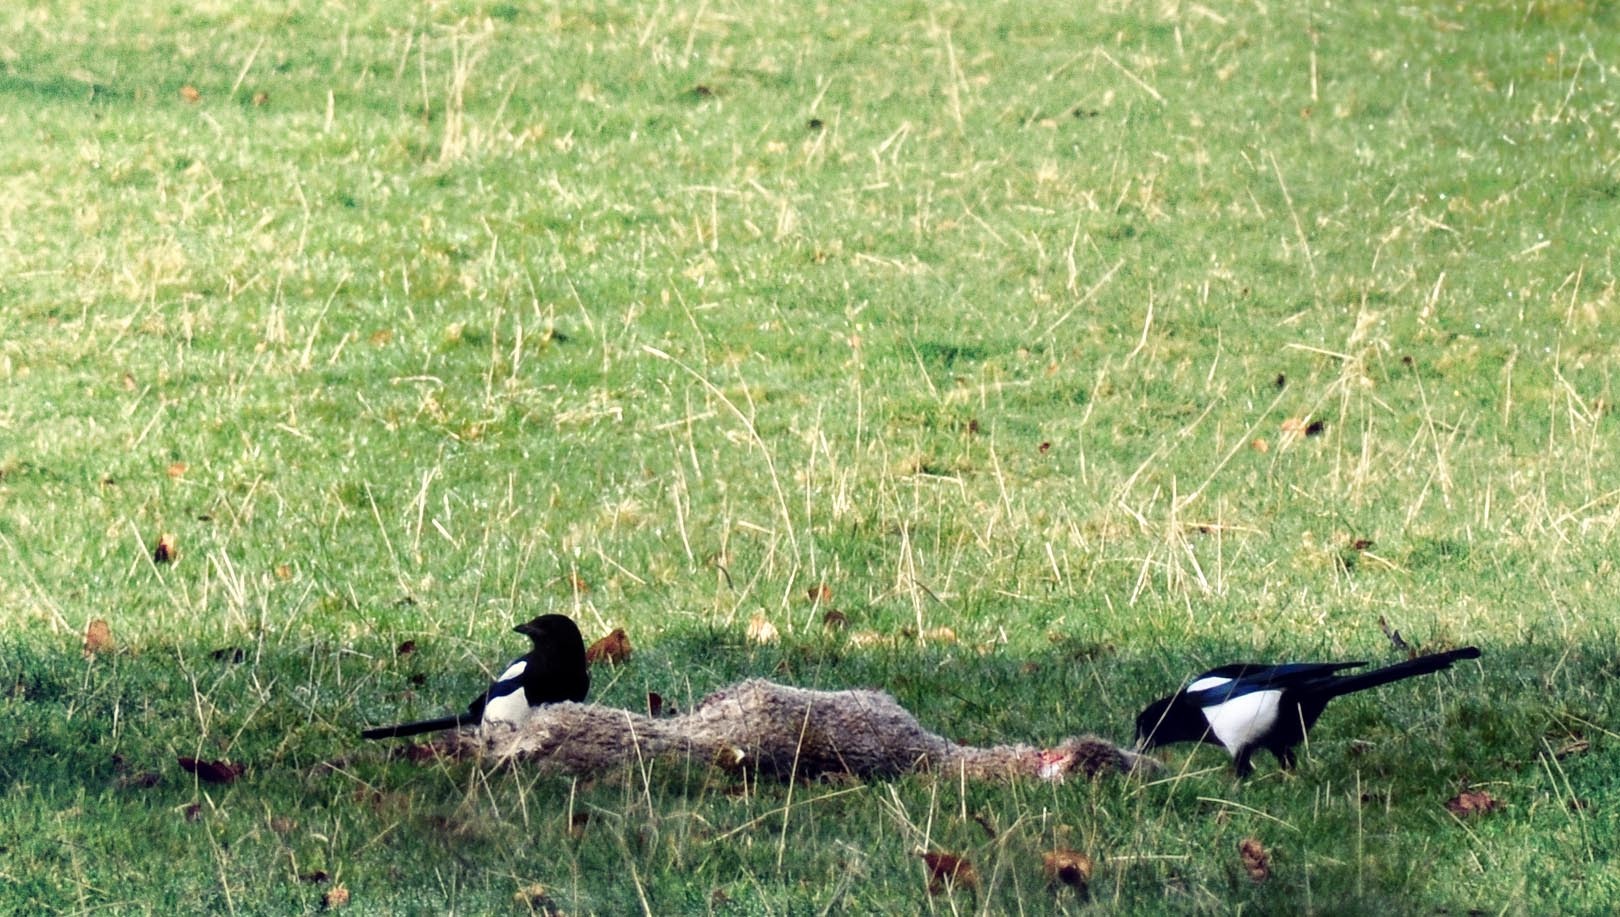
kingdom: Animalia
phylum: Chordata
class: Aves
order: Passeriformes
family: Corvidae
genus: Pica
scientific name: Pica pica
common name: Eurasian magpie
